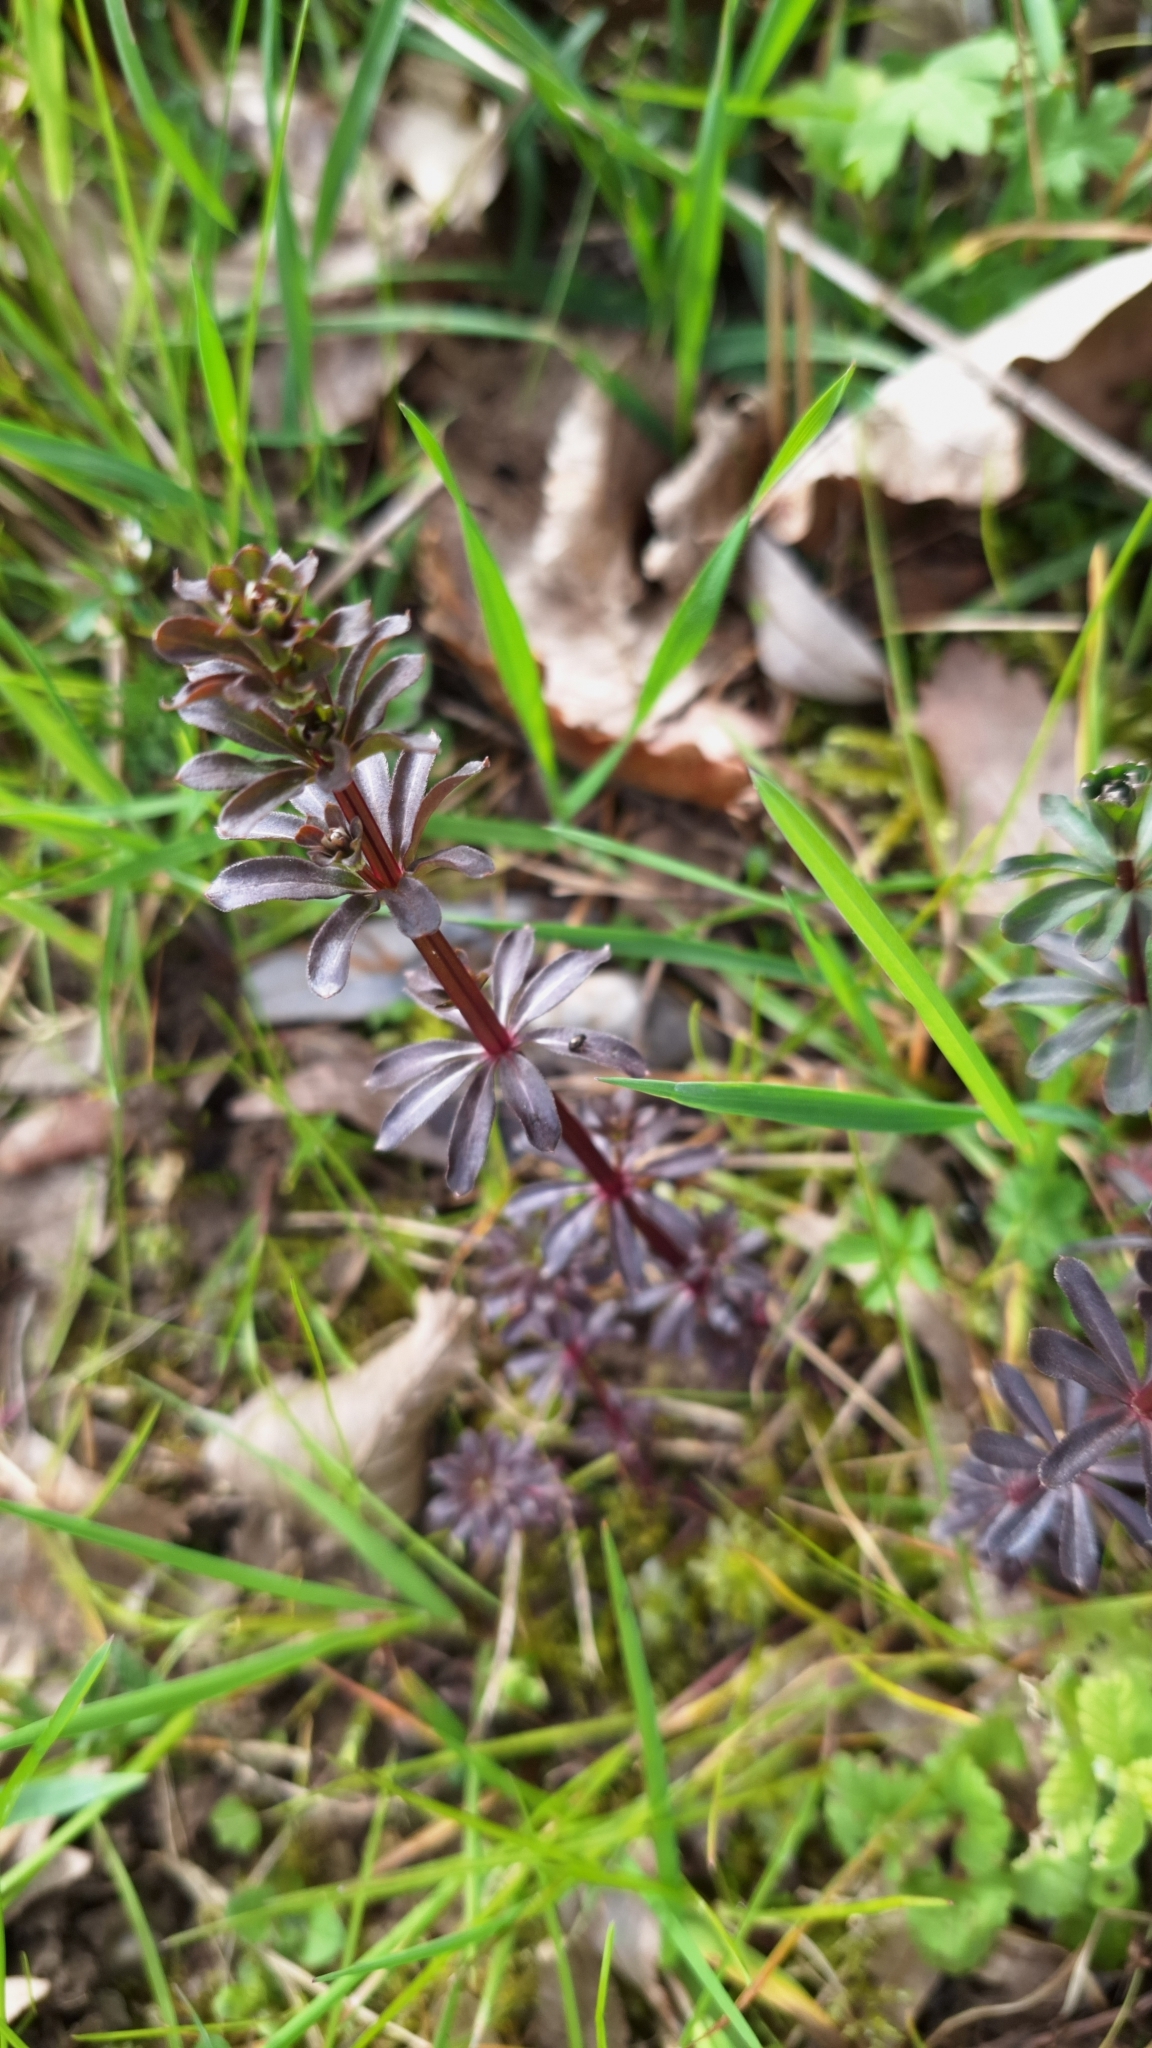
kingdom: Plantae
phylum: Tracheophyta
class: Magnoliopsida
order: Gentianales
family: Rubiaceae
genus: Galium
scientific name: Galium album
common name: White bedstraw
